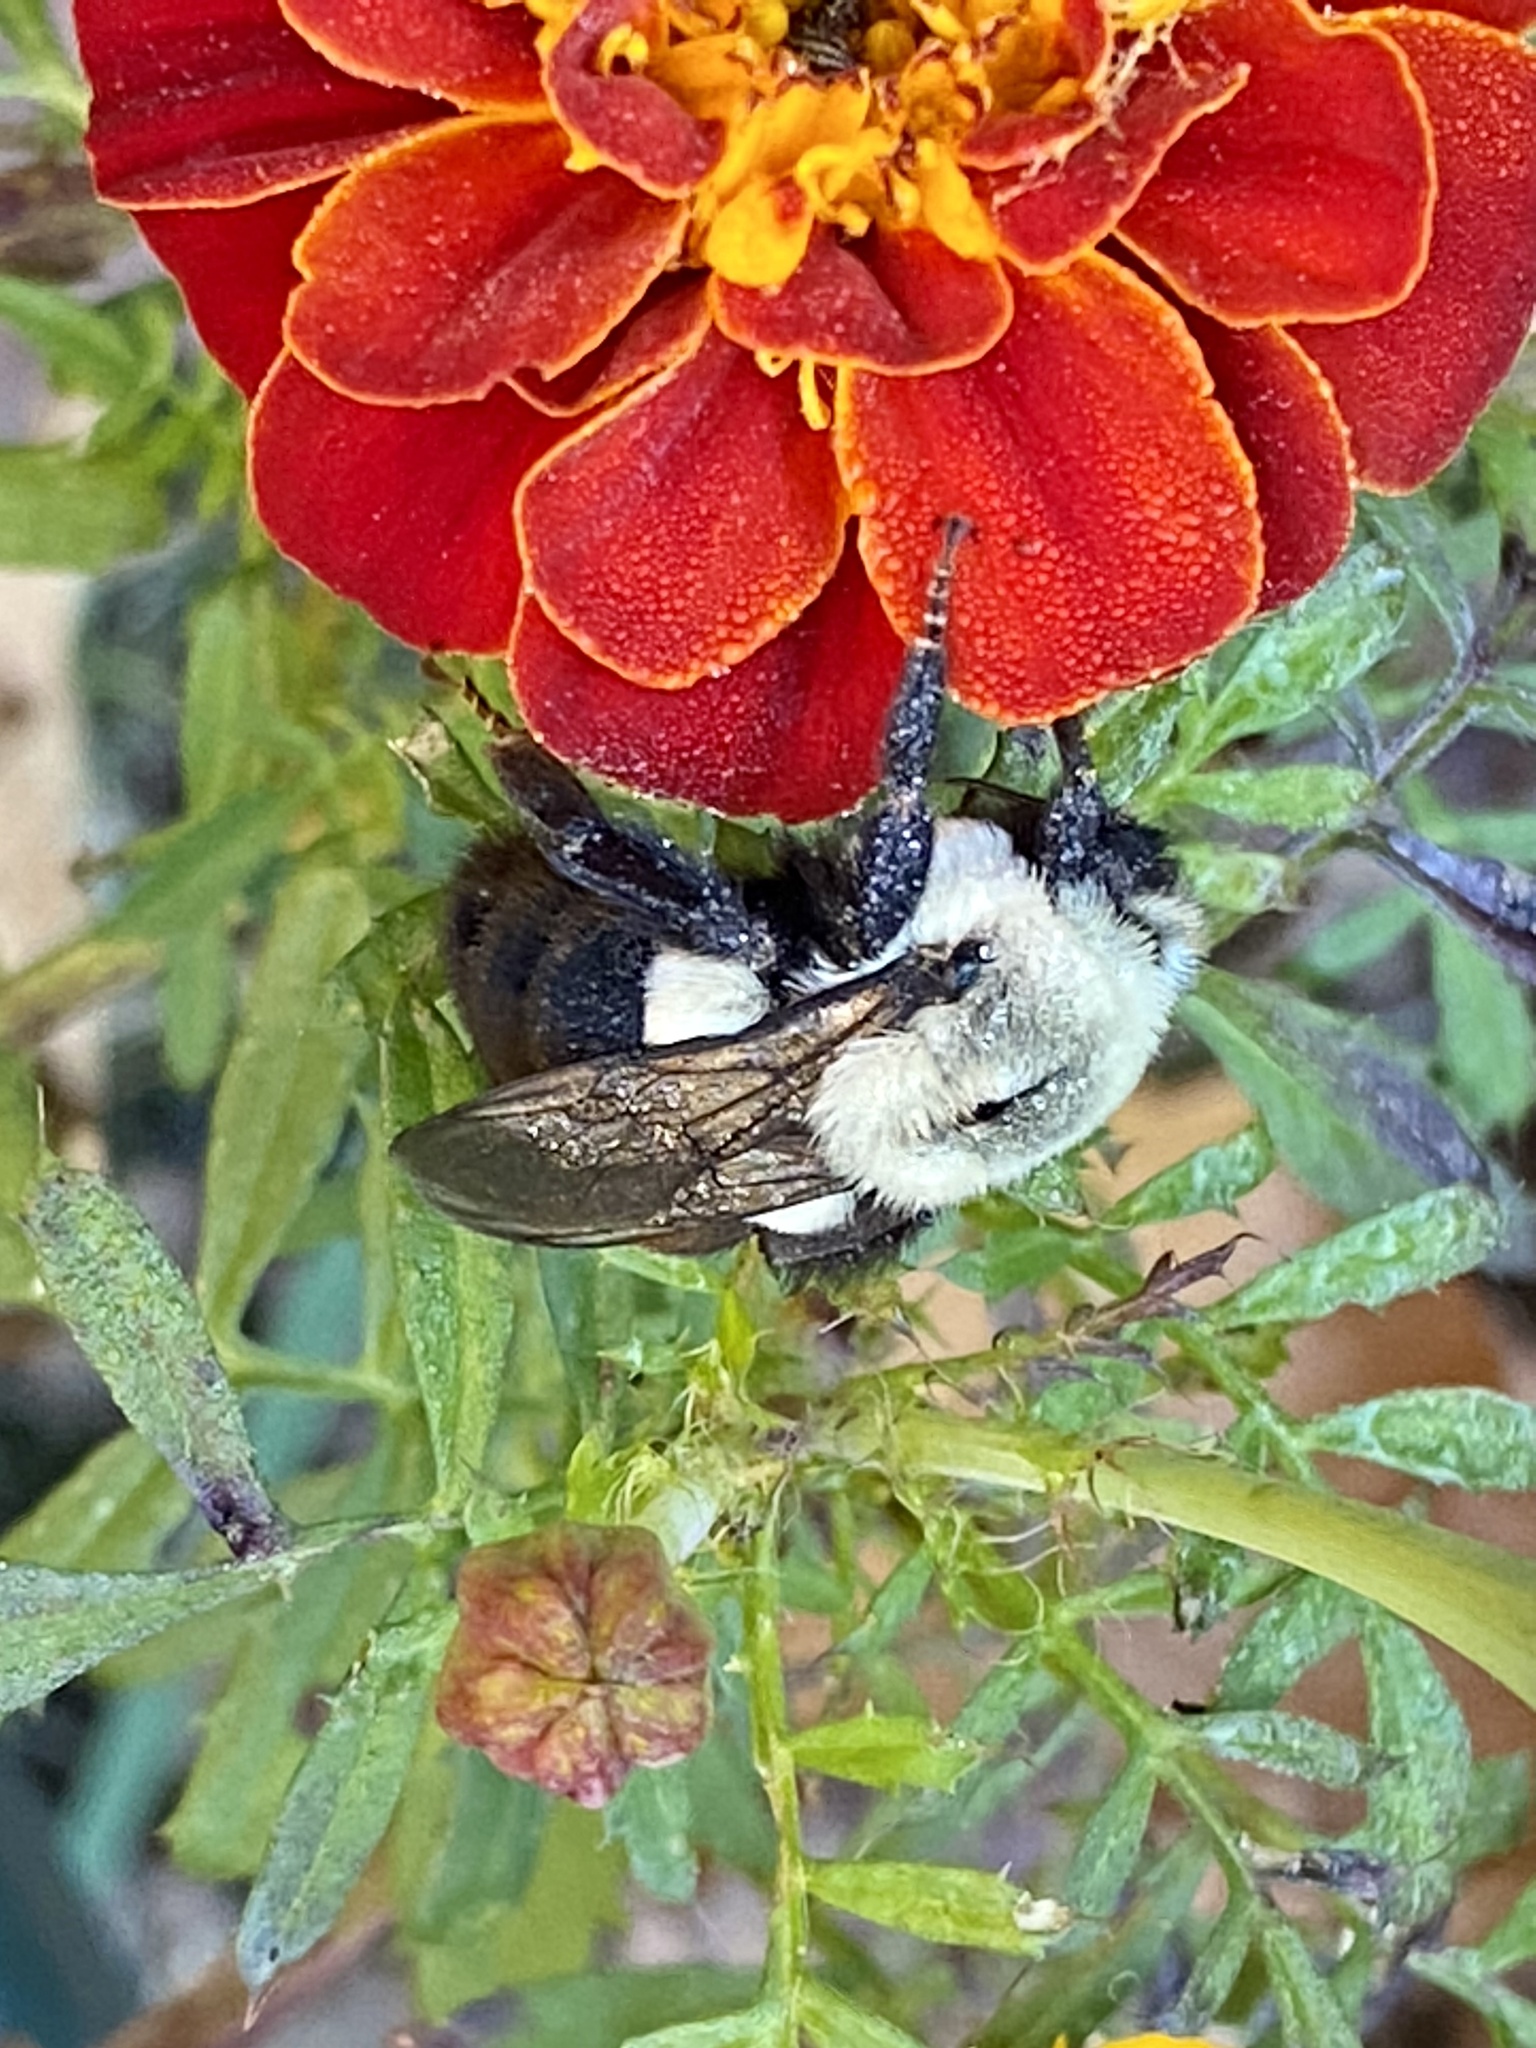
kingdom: Animalia
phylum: Arthropoda
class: Insecta
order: Hymenoptera
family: Apidae
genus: Bombus
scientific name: Bombus impatiens
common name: Common eastern bumble bee
